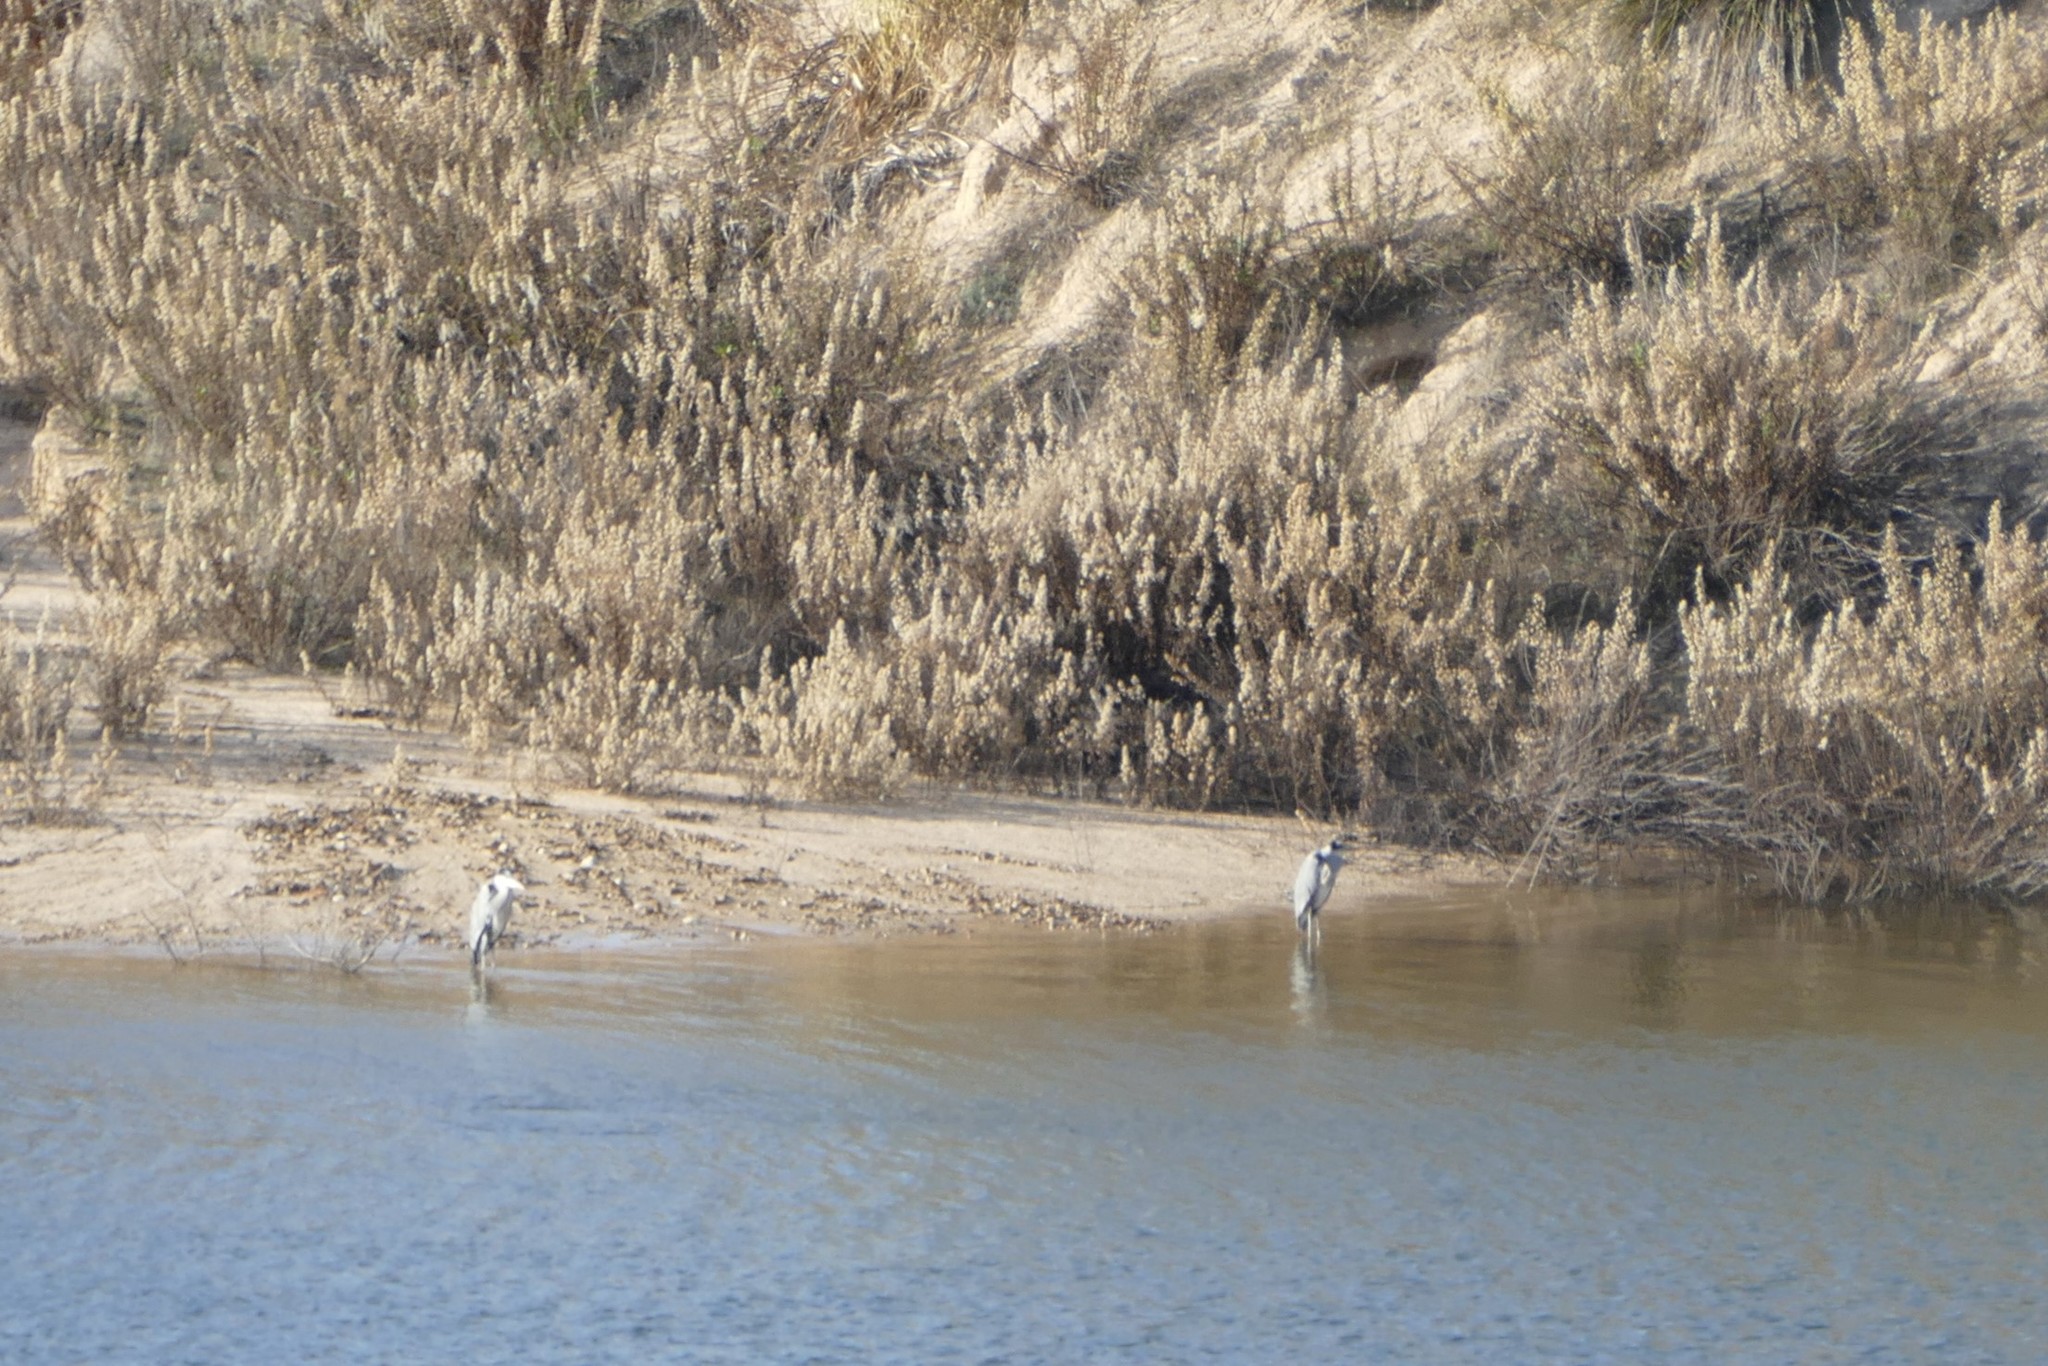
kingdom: Animalia
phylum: Chordata
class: Aves
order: Pelecaniformes
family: Ardeidae
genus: Ardea
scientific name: Ardea cinerea
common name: Grey heron
